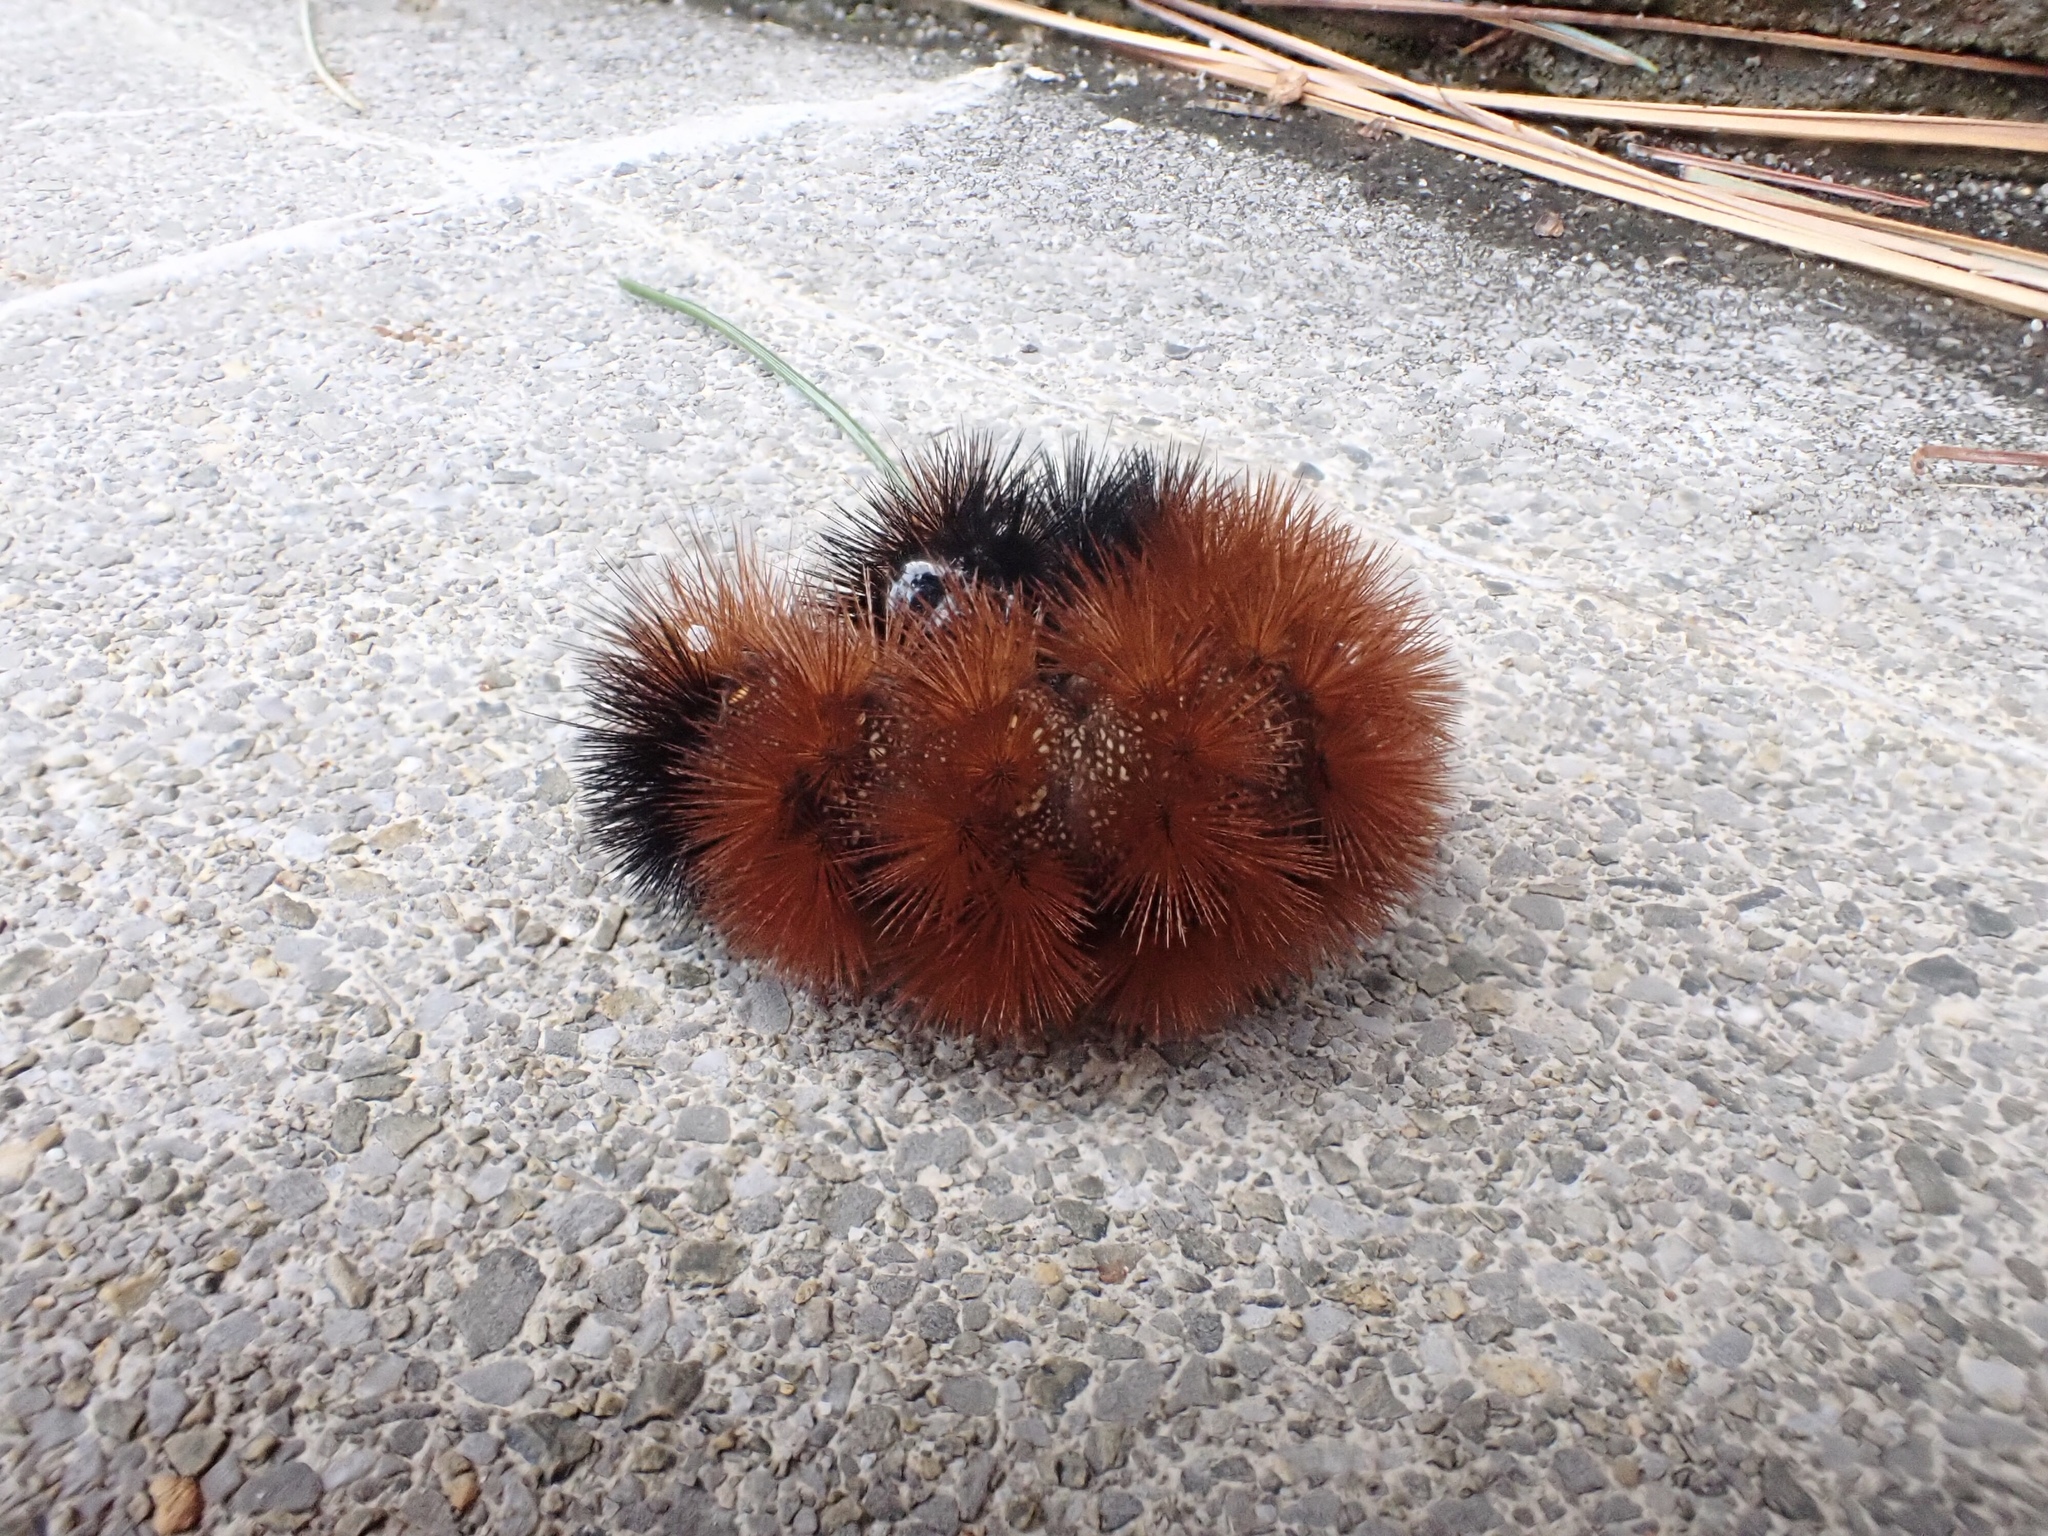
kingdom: Animalia
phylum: Arthropoda
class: Insecta
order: Lepidoptera
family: Erebidae
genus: Pyrrharctia
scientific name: Pyrrharctia isabella
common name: Isabella tiger moth
